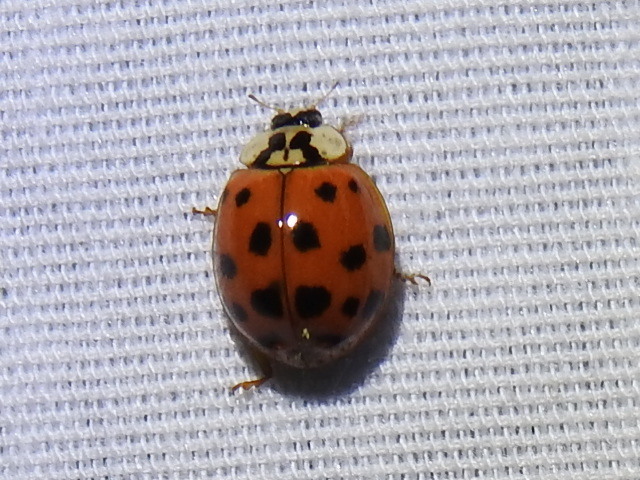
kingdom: Animalia
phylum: Arthropoda
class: Insecta
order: Coleoptera
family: Coccinellidae
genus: Harmonia
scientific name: Harmonia axyridis
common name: Harlequin ladybird
